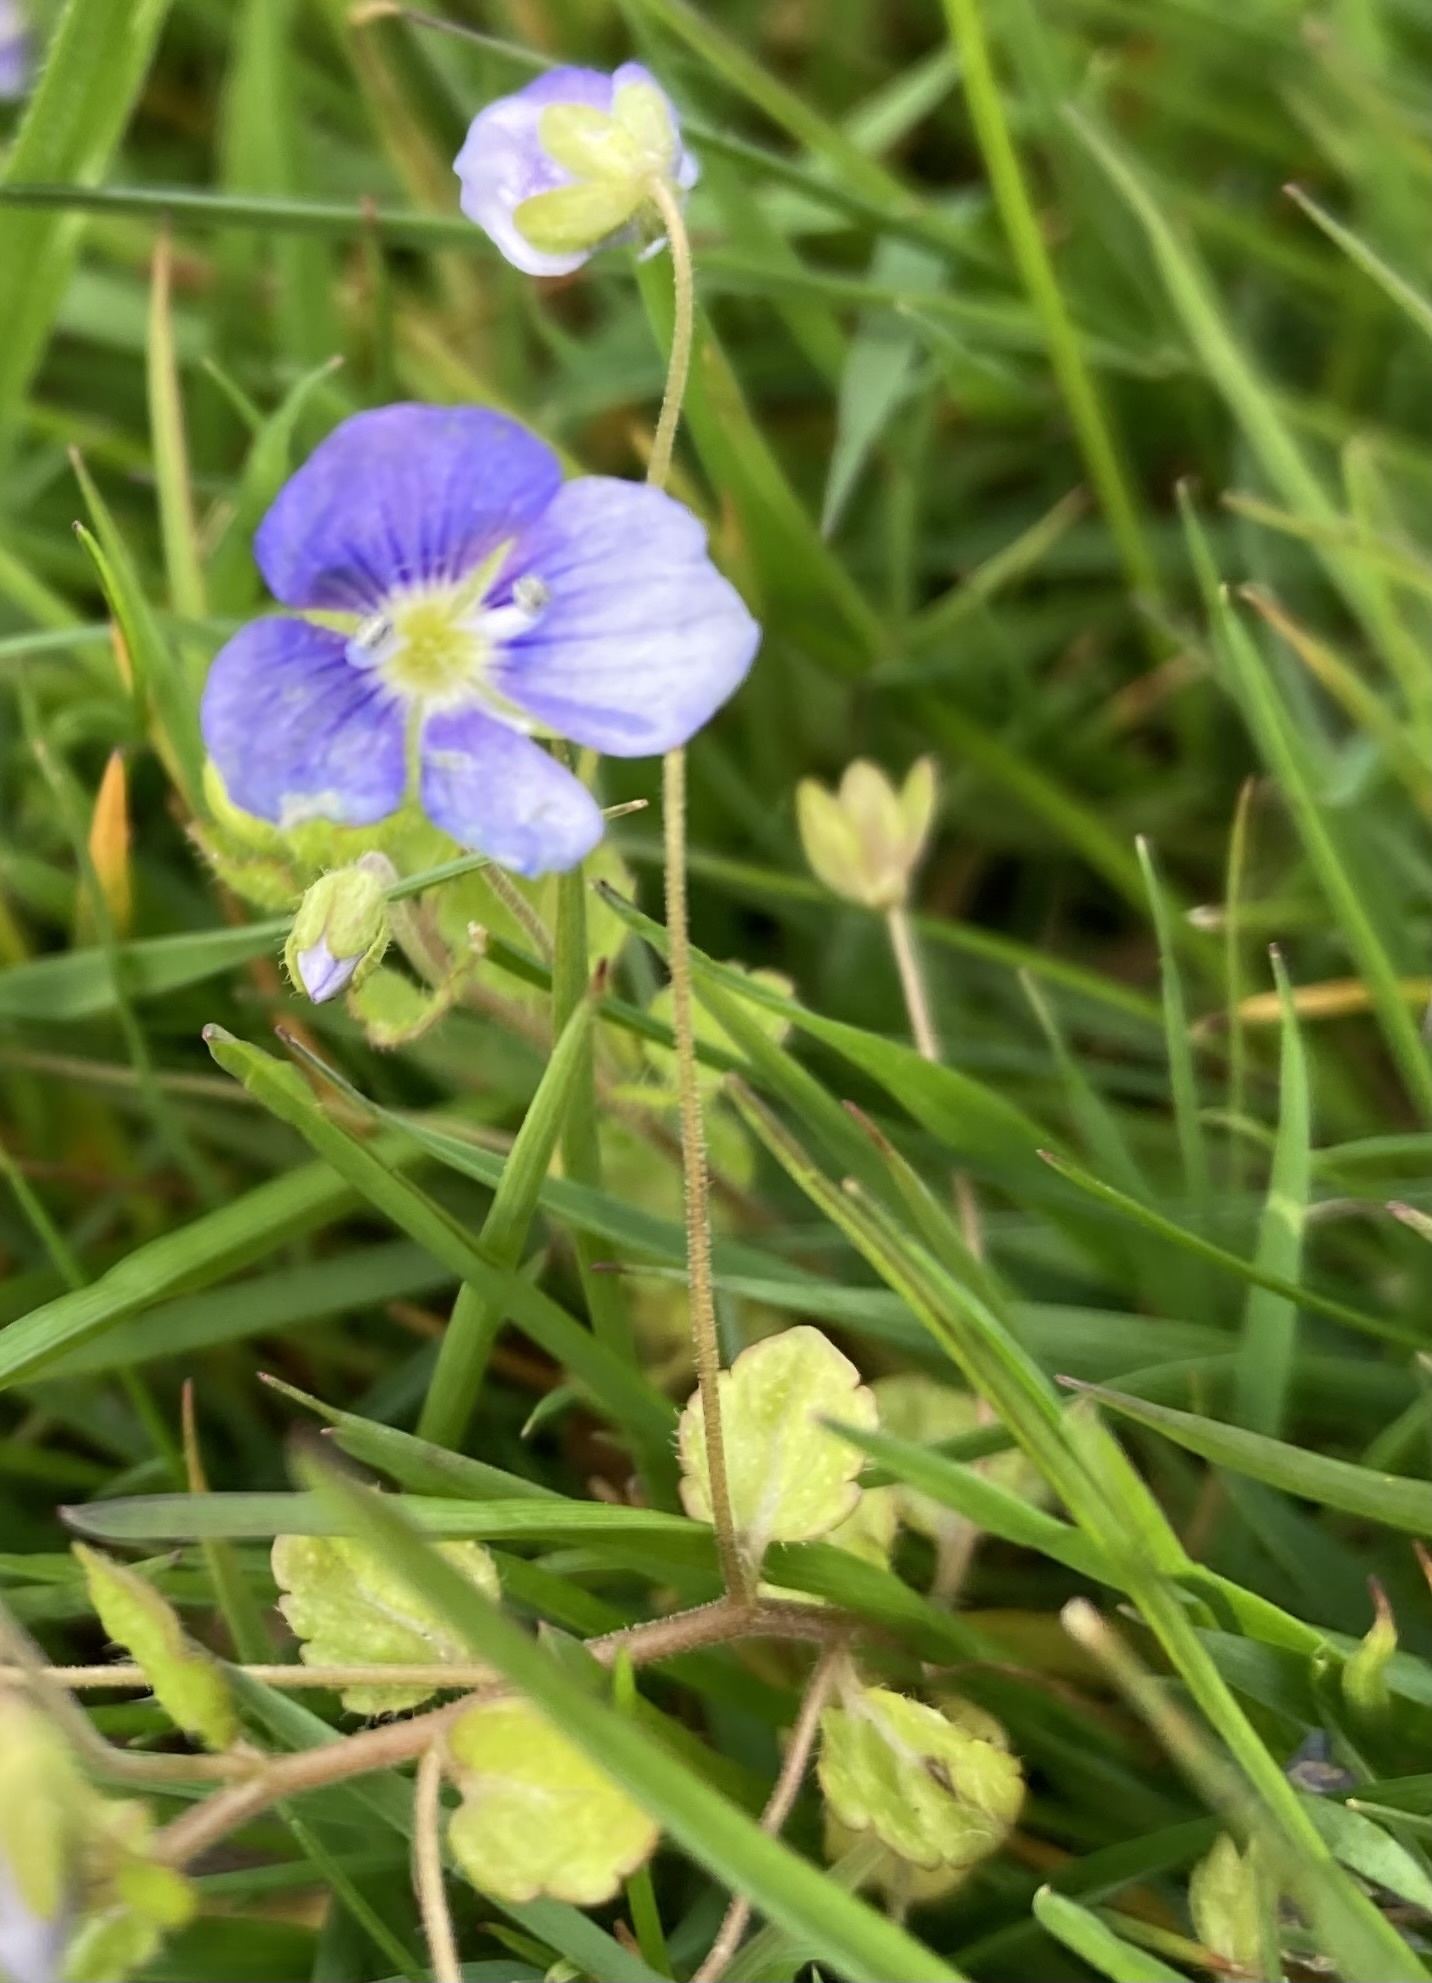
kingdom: Plantae
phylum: Tracheophyta
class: Magnoliopsida
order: Lamiales
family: Plantaginaceae
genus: Veronica
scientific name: Veronica filiformis
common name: Slender speedwell
